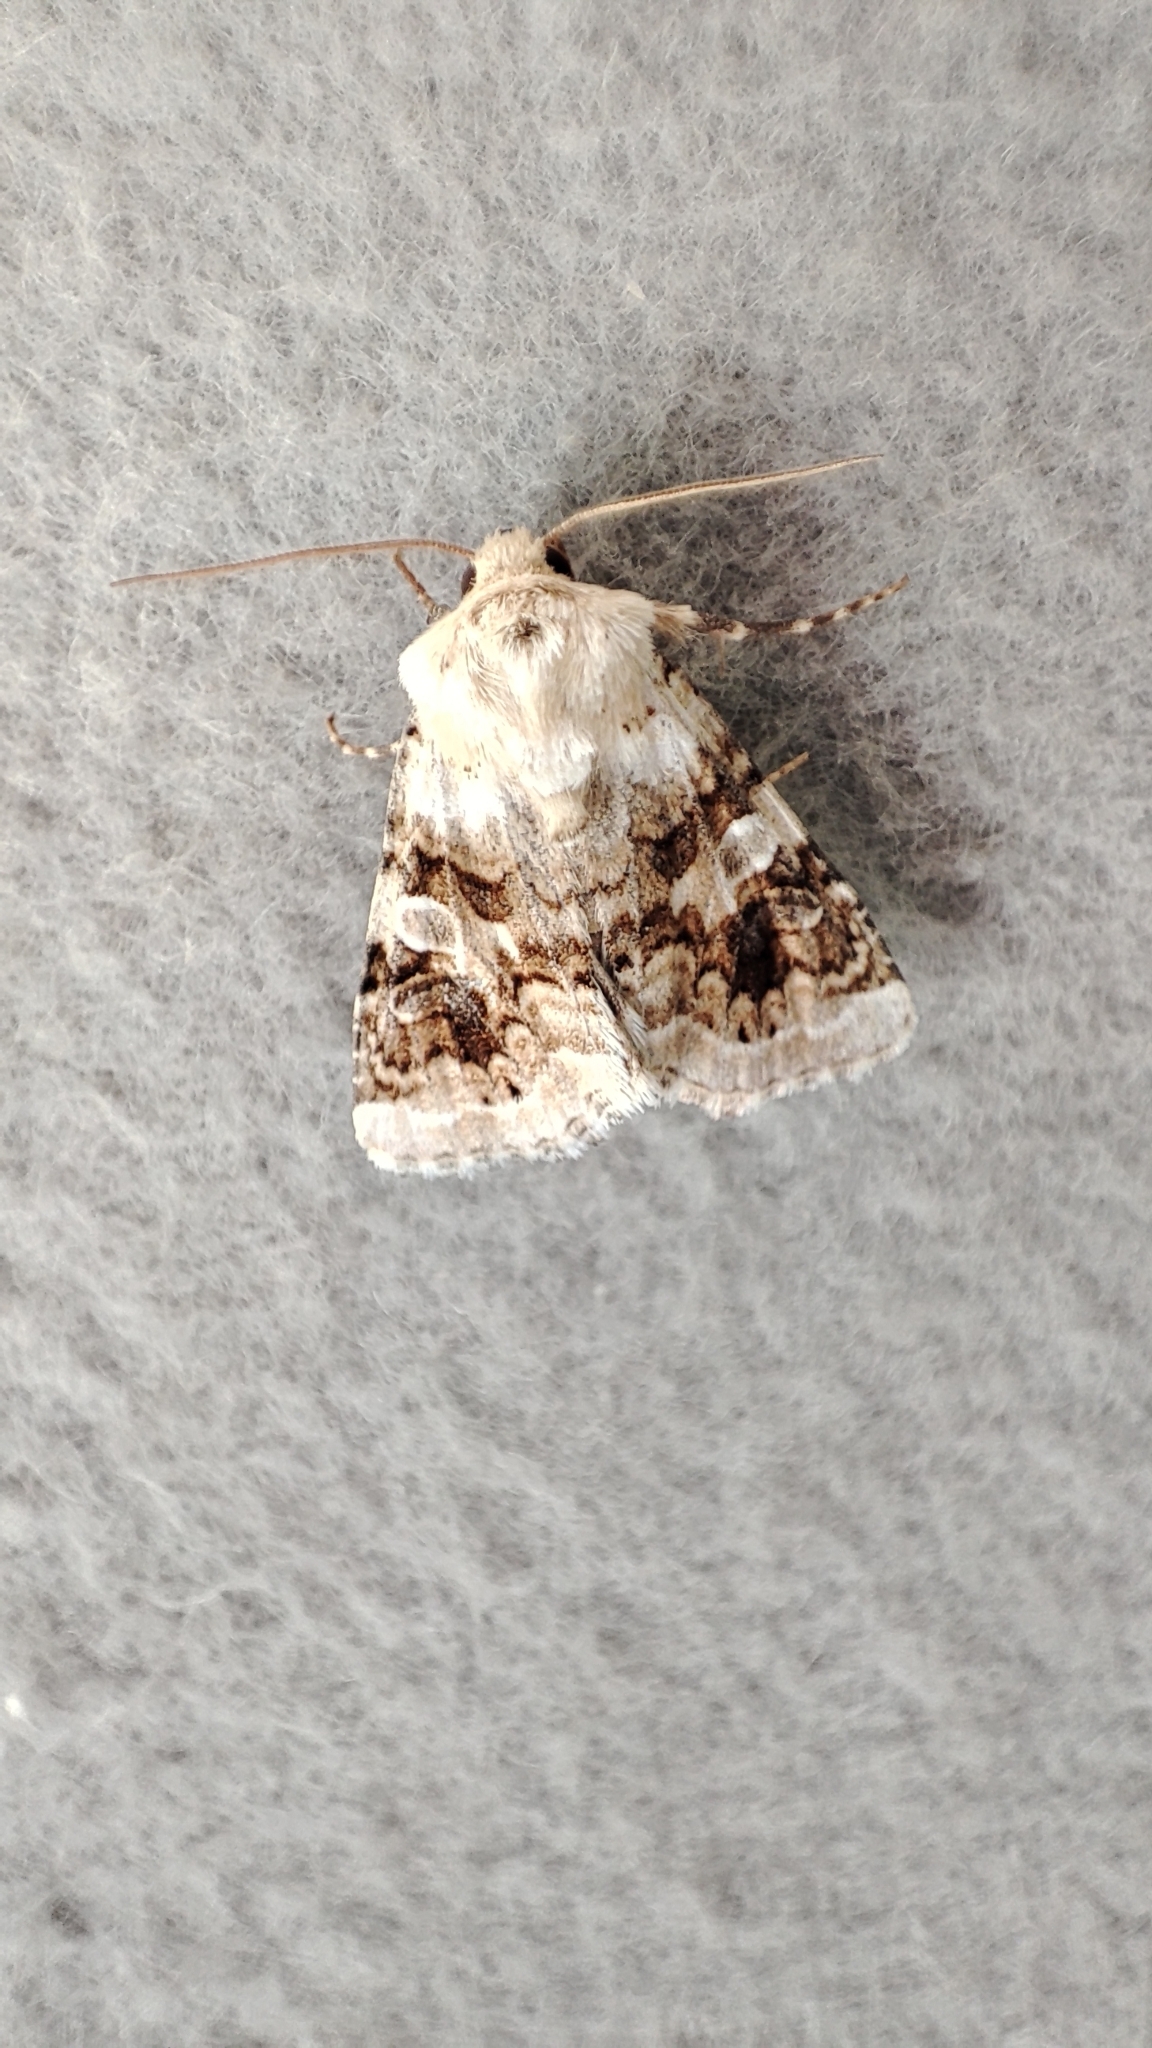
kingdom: Animalia
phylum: Arthropoda
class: Insecta
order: Lepidoptera
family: Noctuidae
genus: Hadena
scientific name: Hadena aberrans
